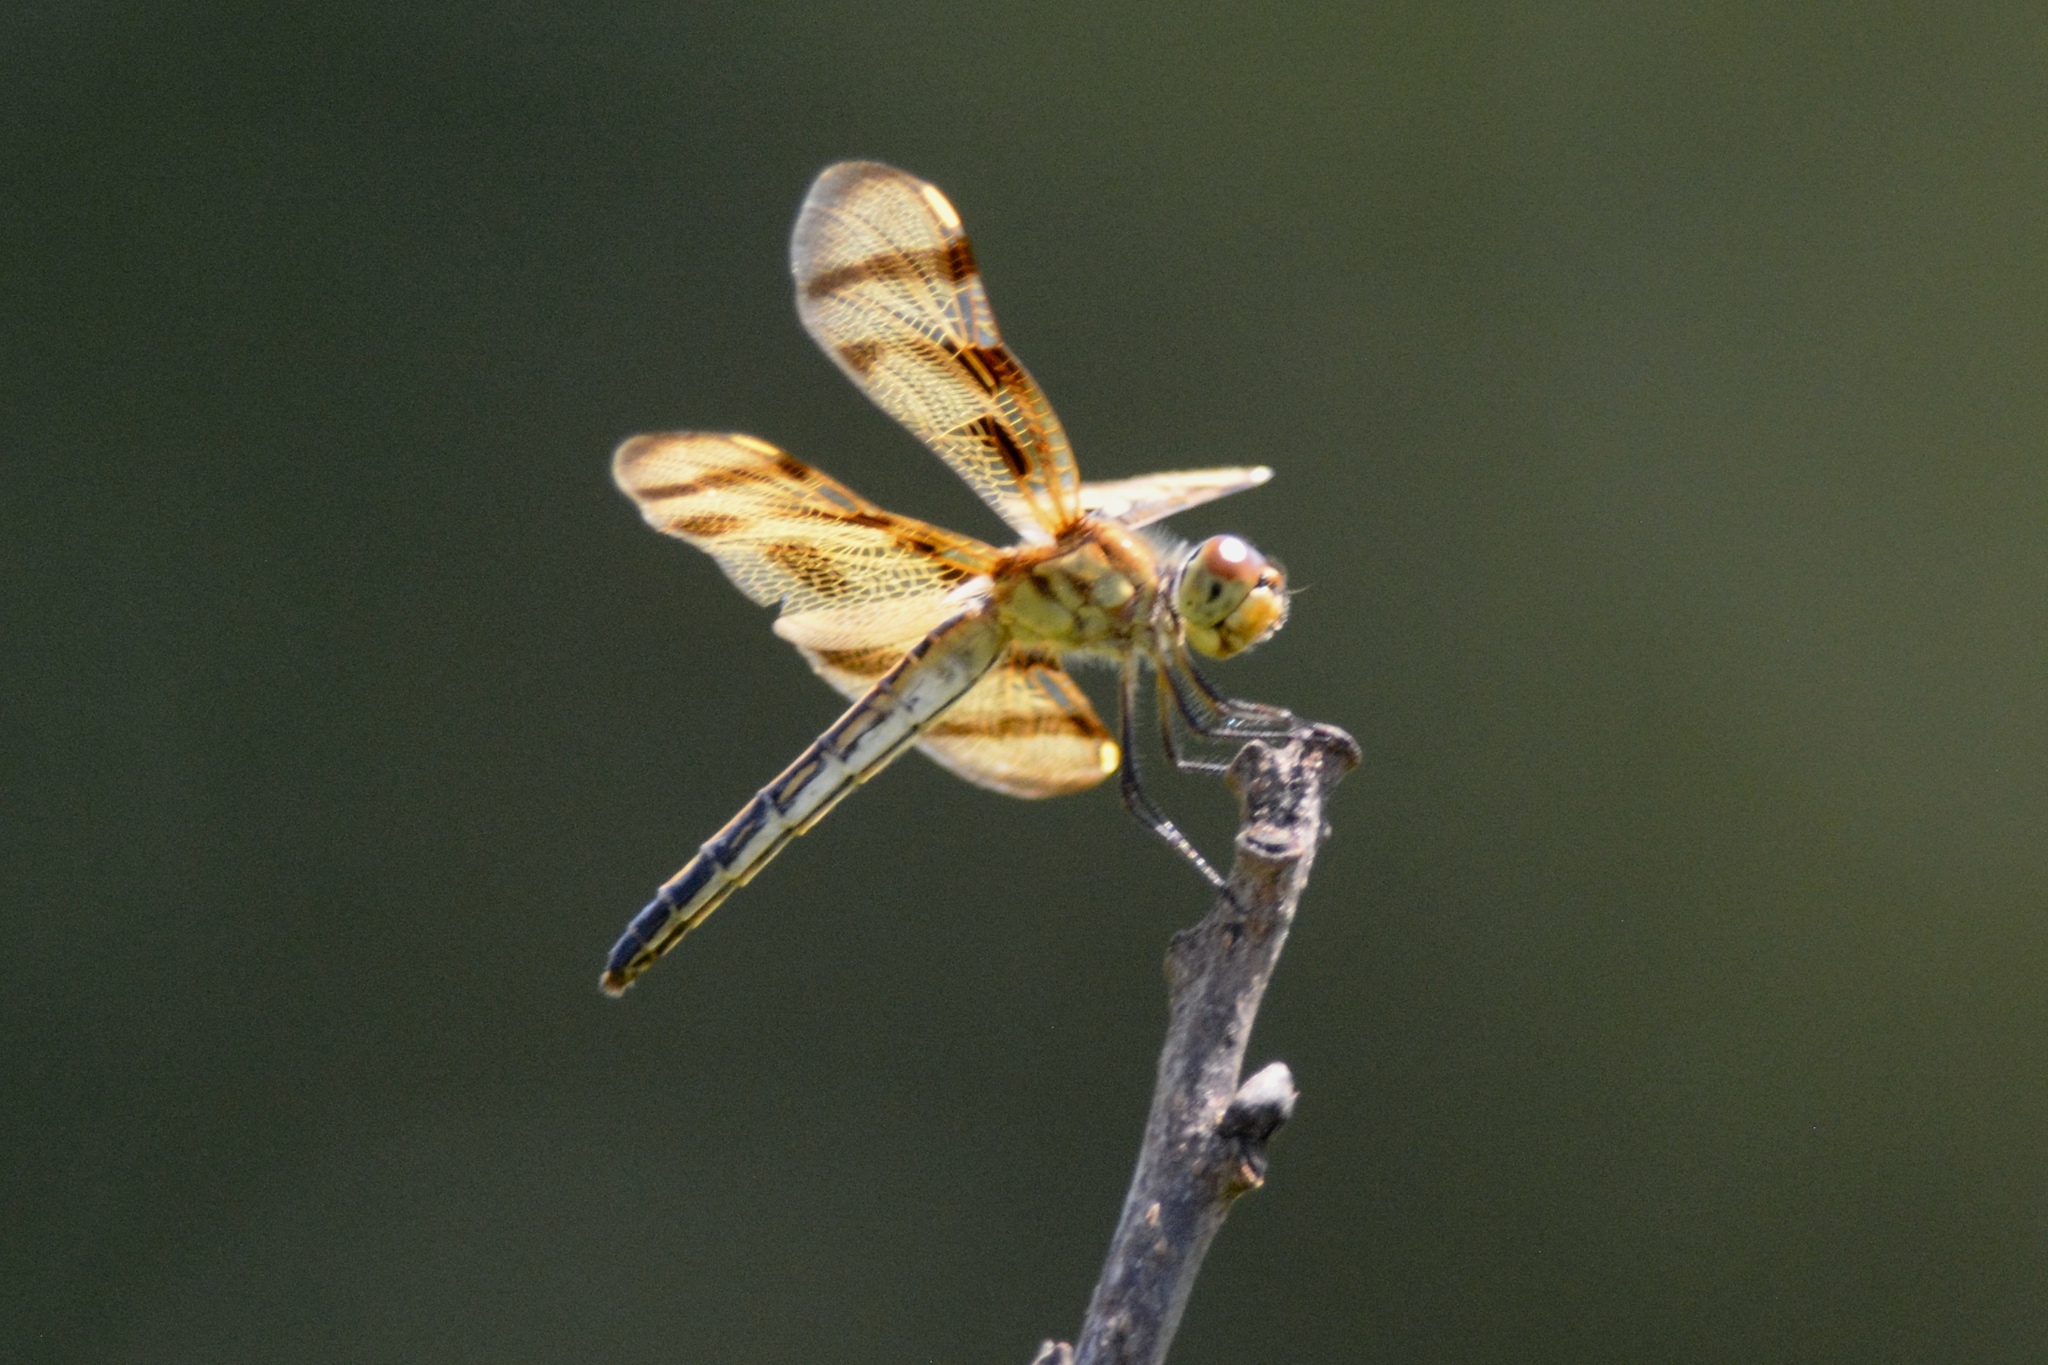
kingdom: Animalia
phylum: Arthropoda
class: Insecta
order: Odonata
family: Libellulidae
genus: Celithemis
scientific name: Celithemis eponina
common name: Halloween pennant
